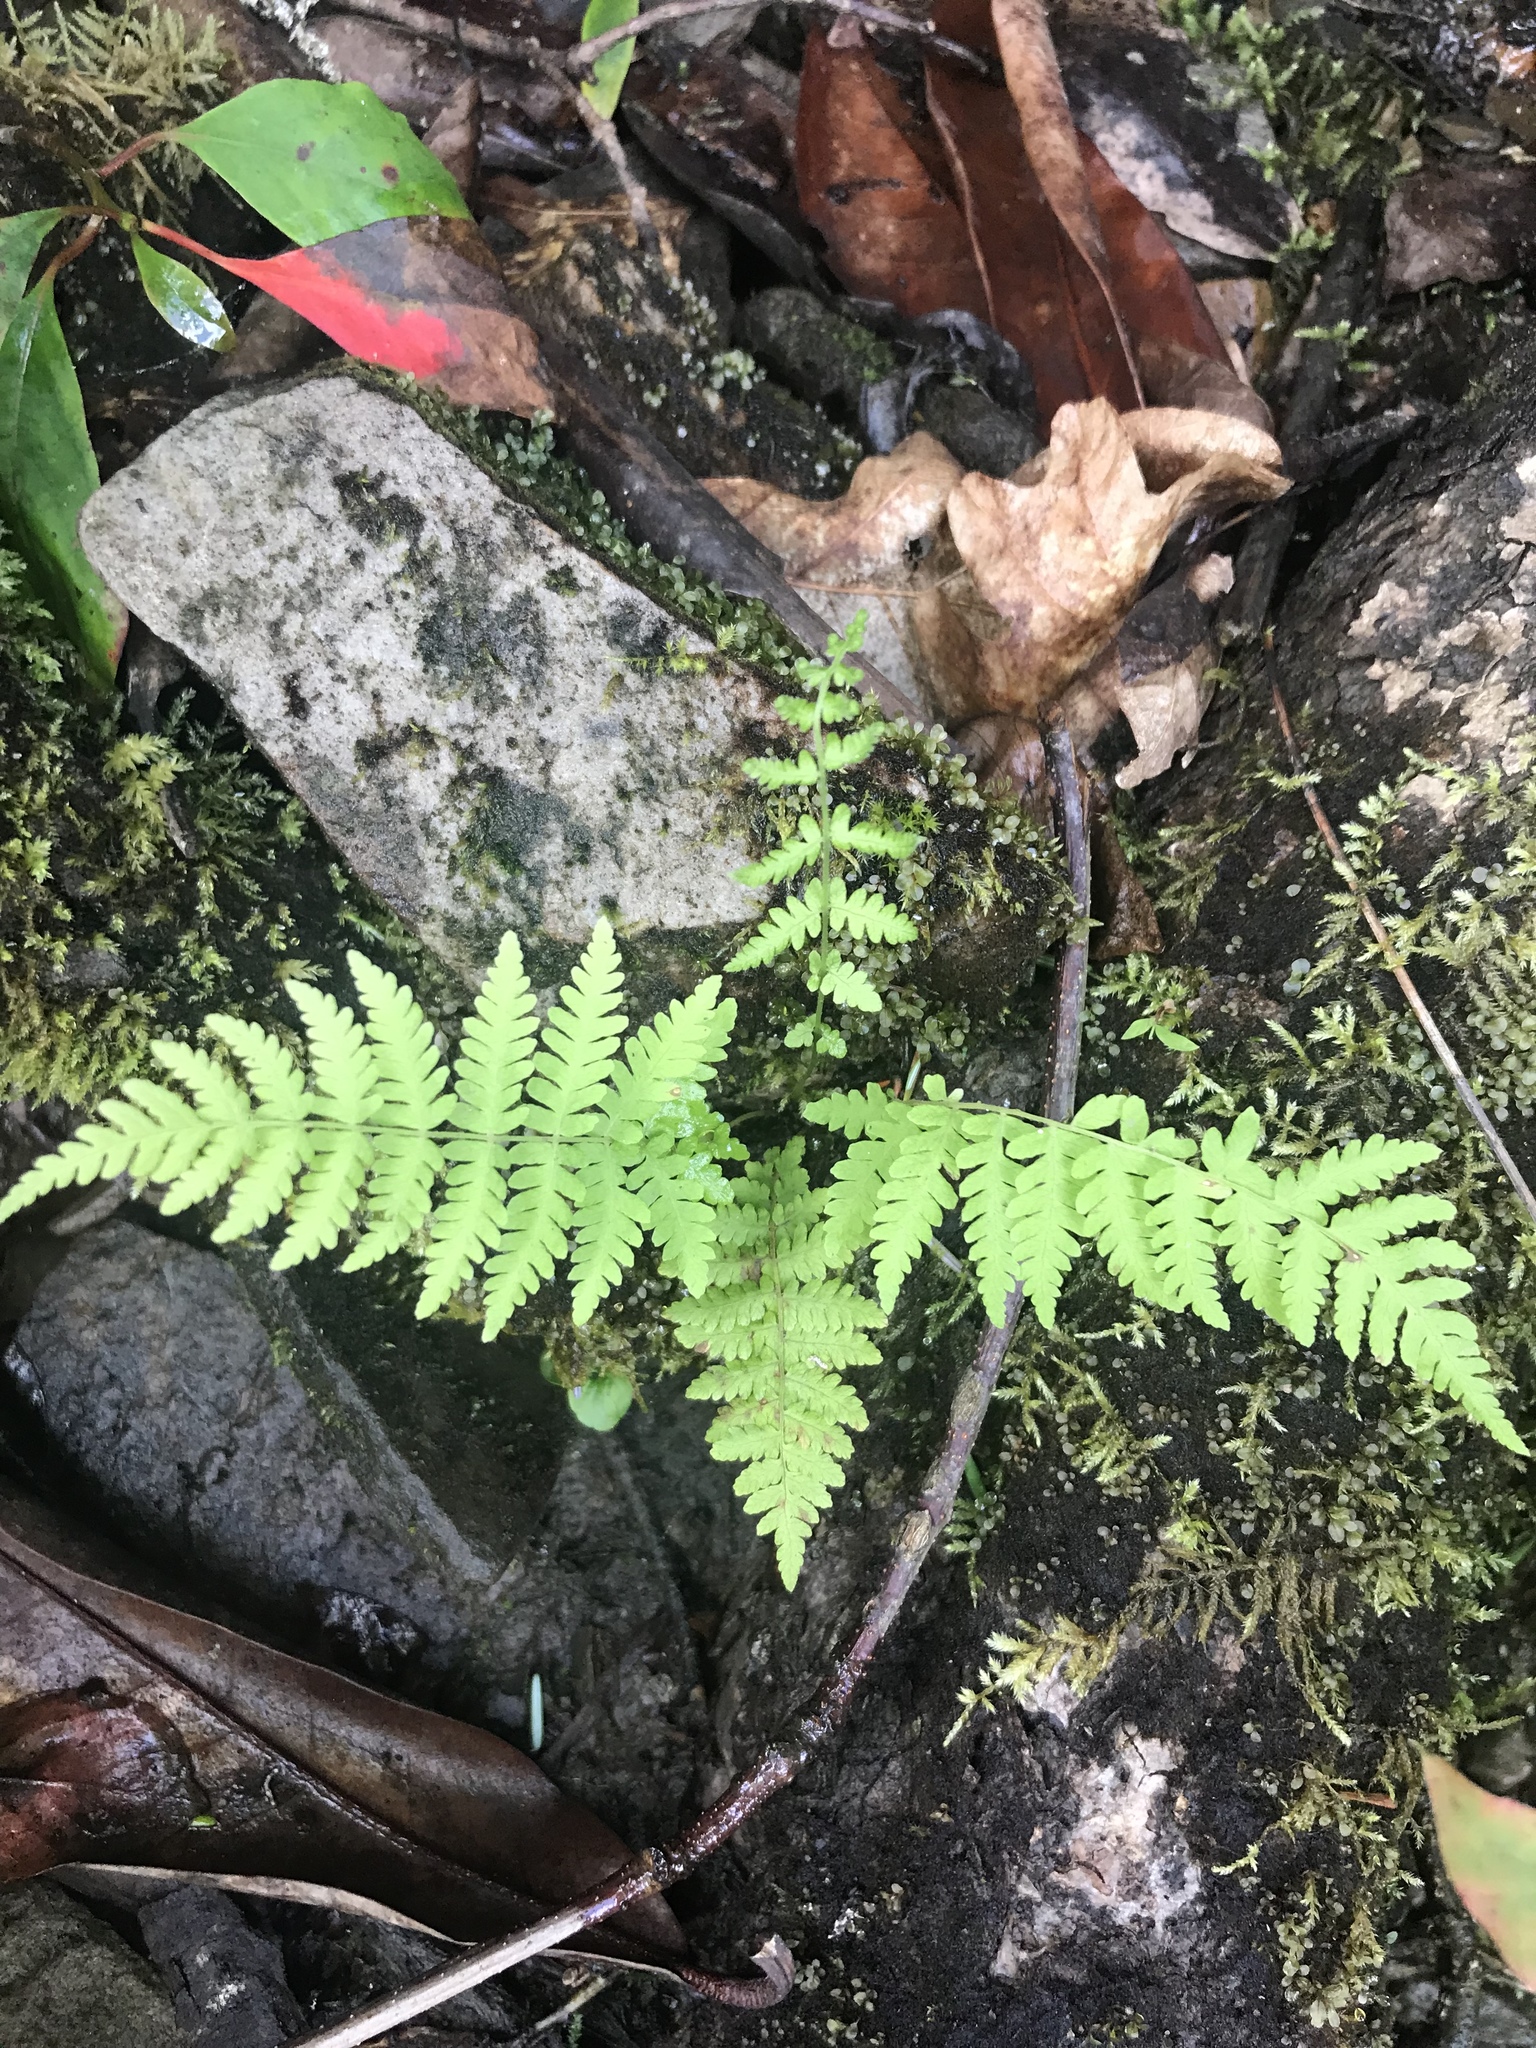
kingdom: Plantae
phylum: Tracheophyta
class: Polypodiopsida
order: Polypodiales
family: Thelypteridaceae
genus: Amauropelta
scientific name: Amauropelta noveboracensis
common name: New york fern
